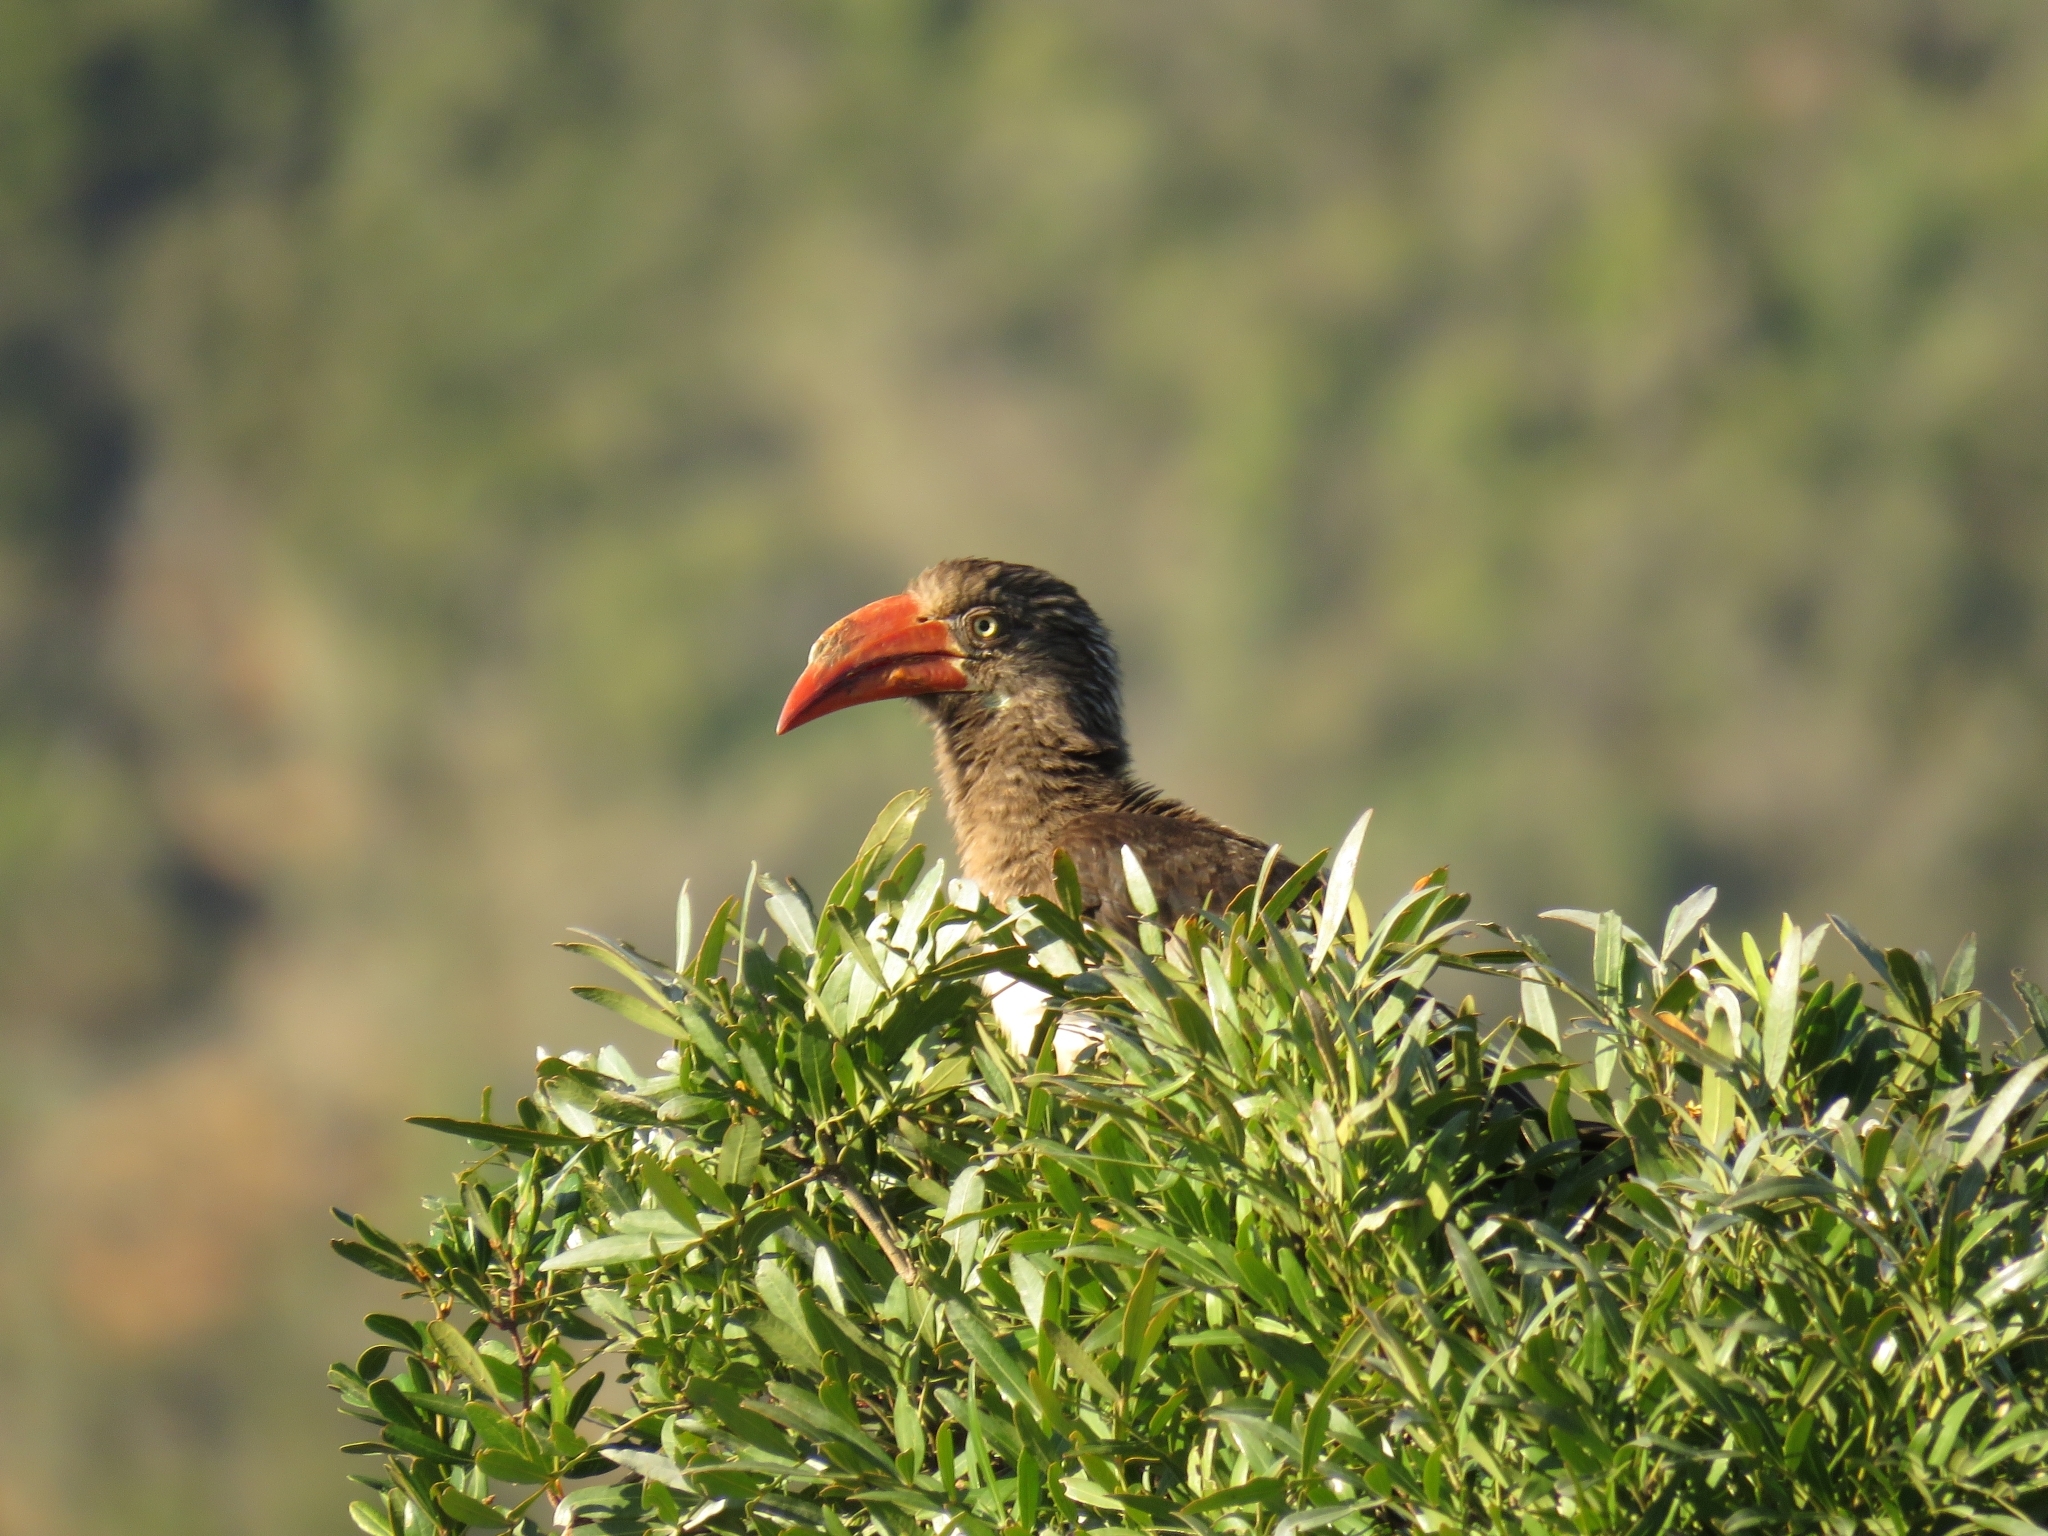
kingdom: Animalia
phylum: Chordata
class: Aves
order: Bucerotiformes
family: Bucerotidae
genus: Lophoceros
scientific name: Lophoceros alboterminatus
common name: Crowned hornbill
